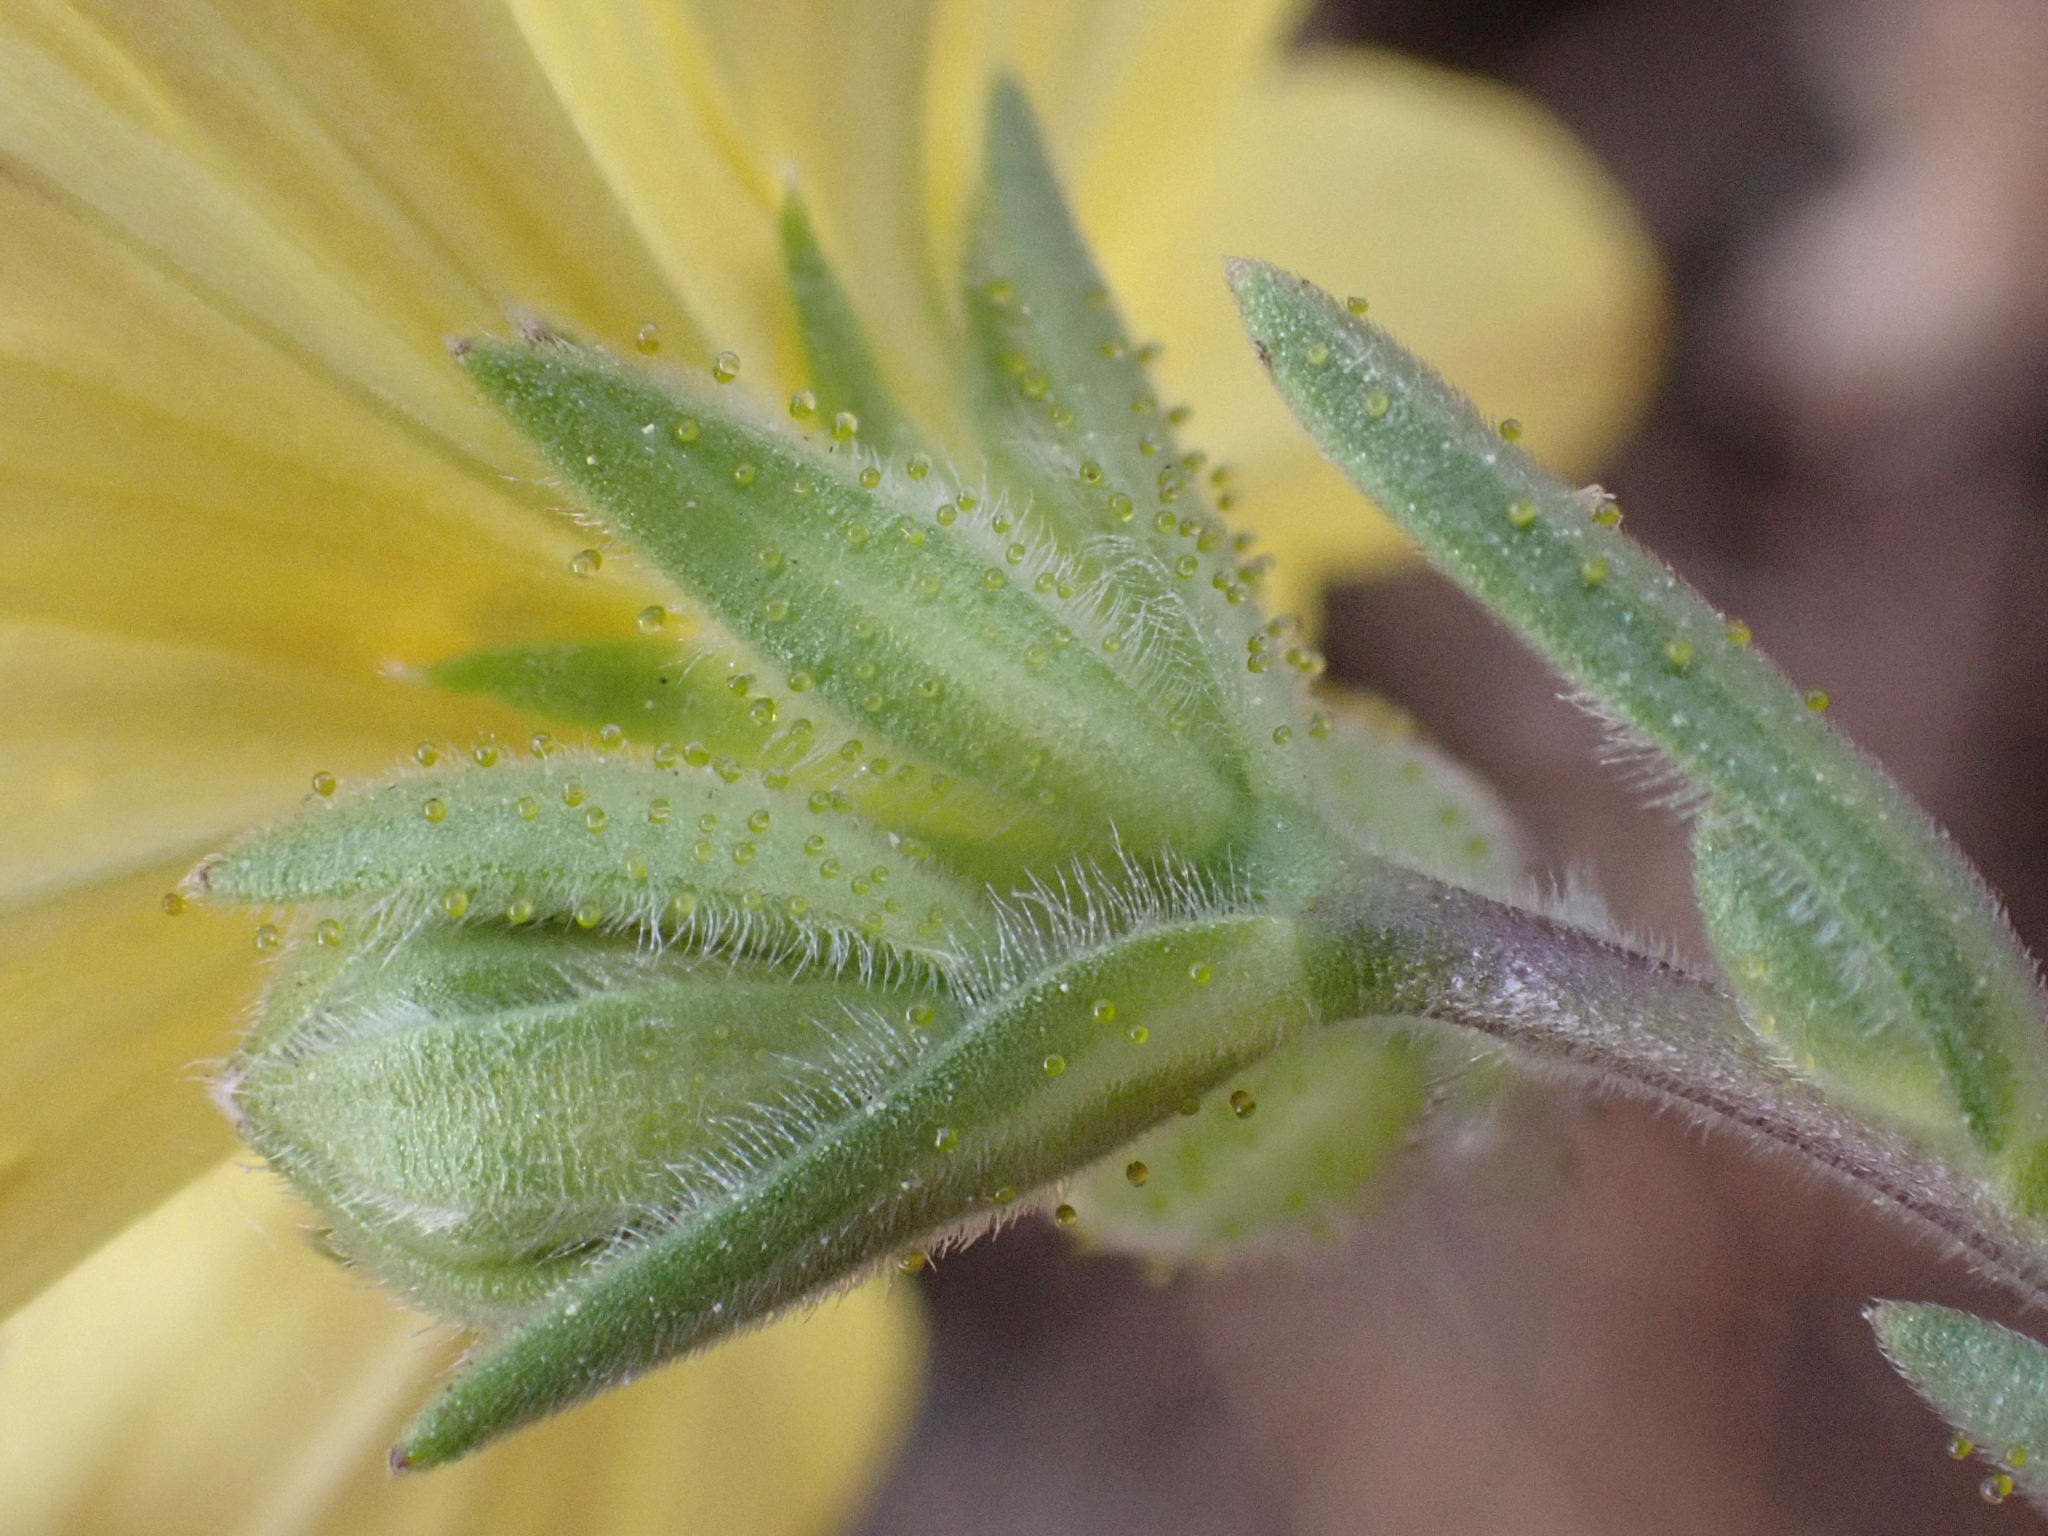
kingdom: Plantae
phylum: Tracheophyta
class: Magnoliopsida
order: Asterales
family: Asteraceae
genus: Lagophylla
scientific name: Lagophylla glandulosa
